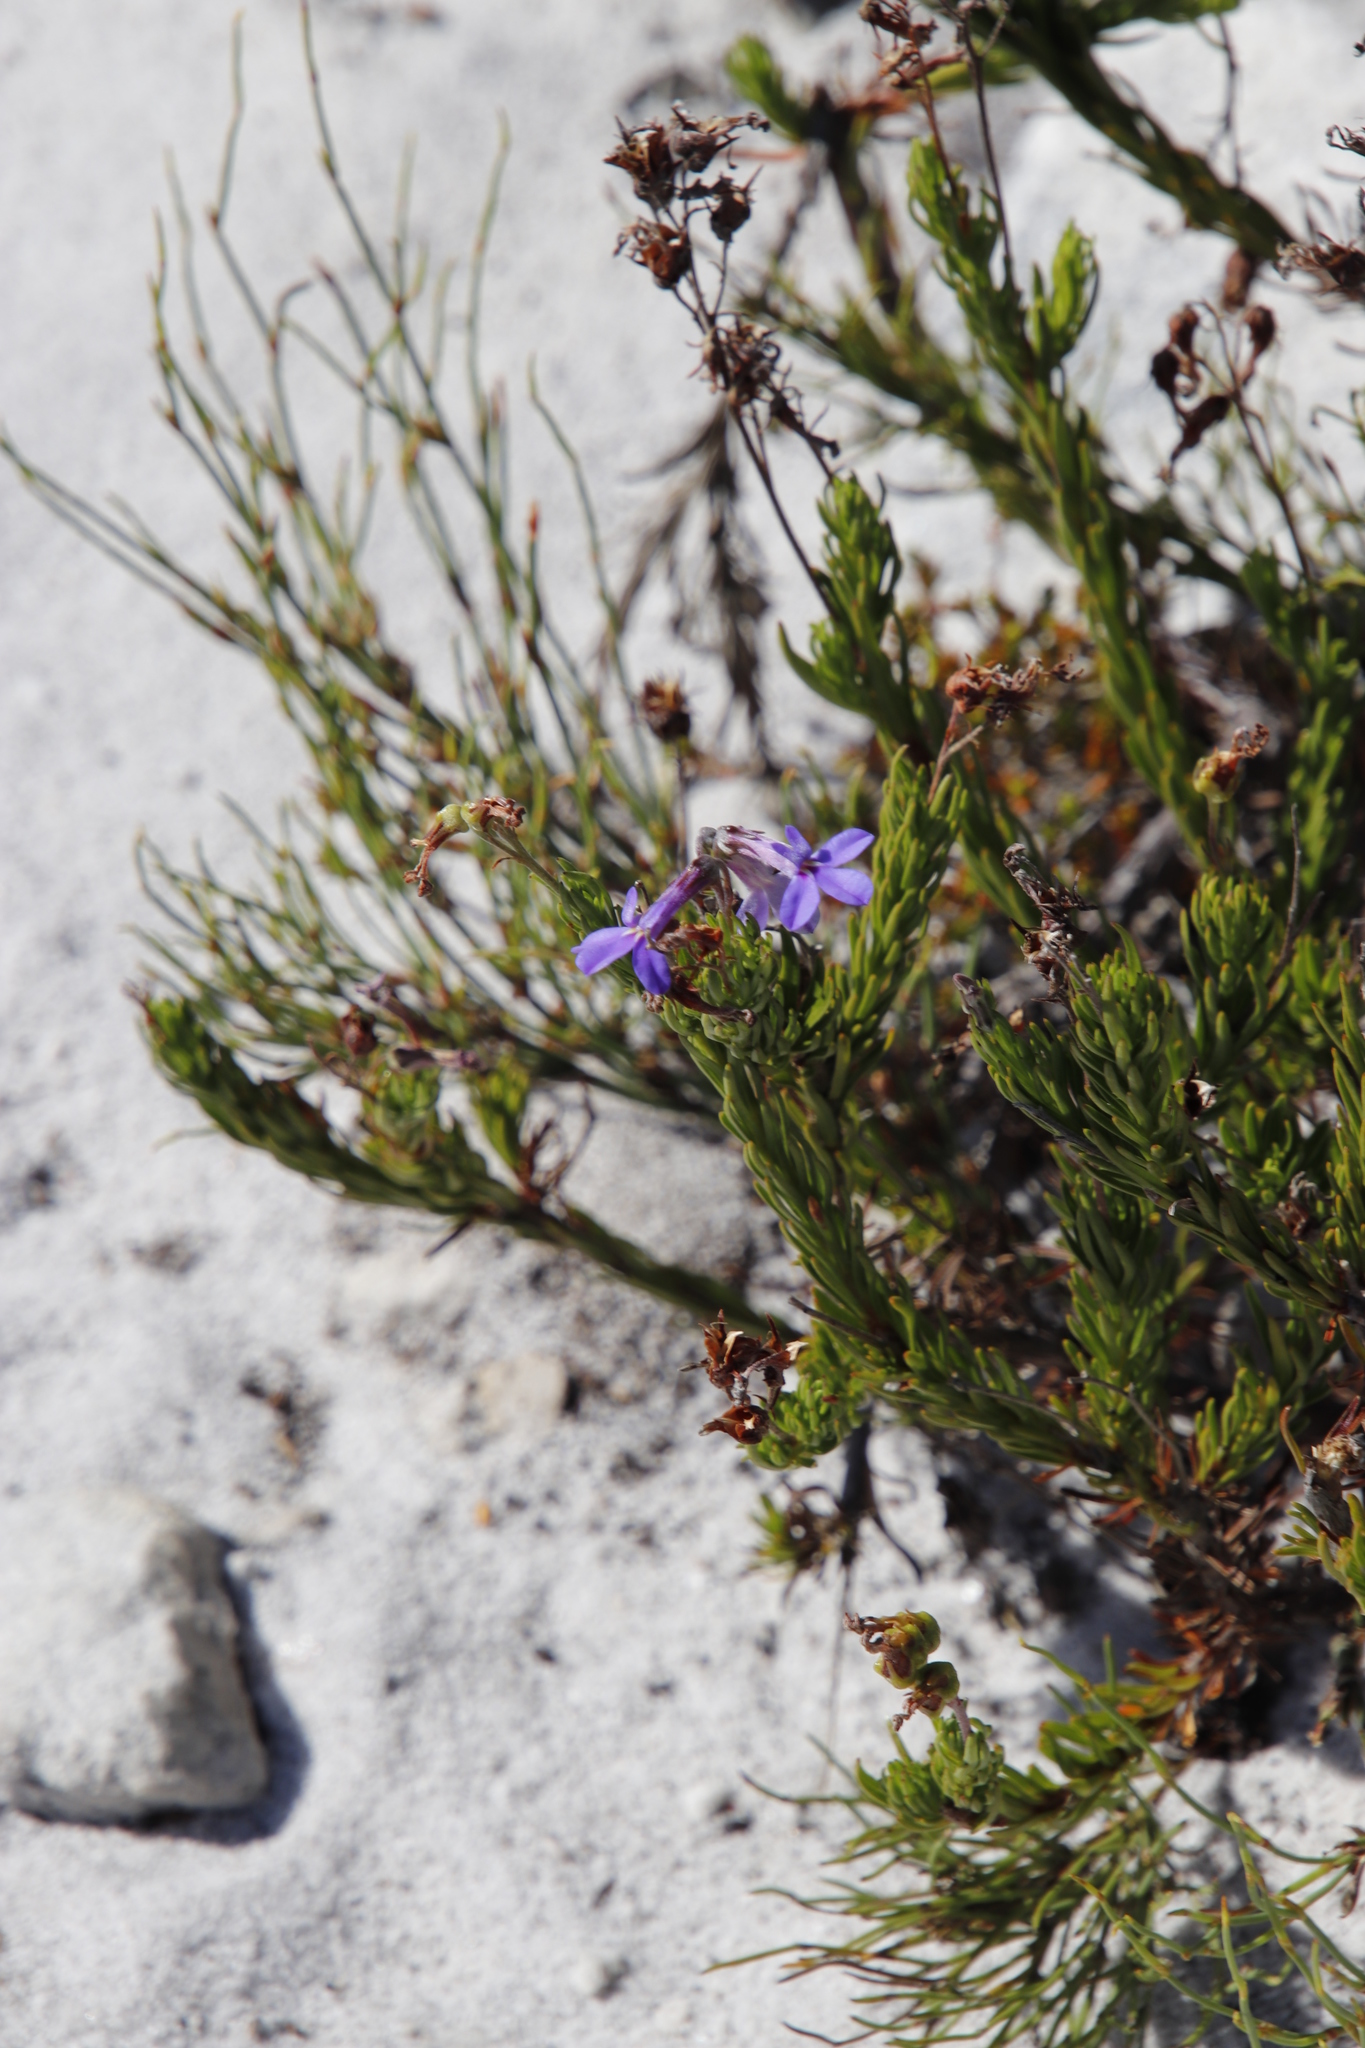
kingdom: Plantae
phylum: Tracheophyta
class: Magnoliopsida
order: Asterales
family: Campanulaceae
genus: Lobelia
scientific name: Lobelia pinifolia
